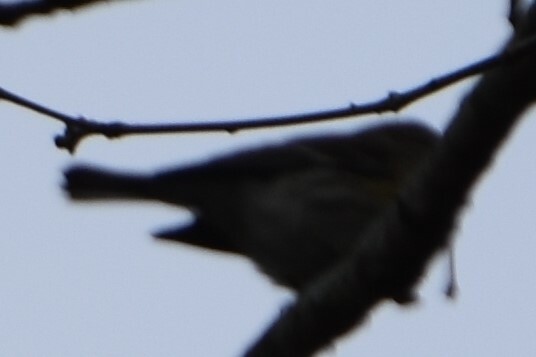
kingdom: Animalia
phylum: Chordata
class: Aves
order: Passeriformes
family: Parulidae
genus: Setophaga
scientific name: Setophaga coronata
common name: Myrtle warbler
